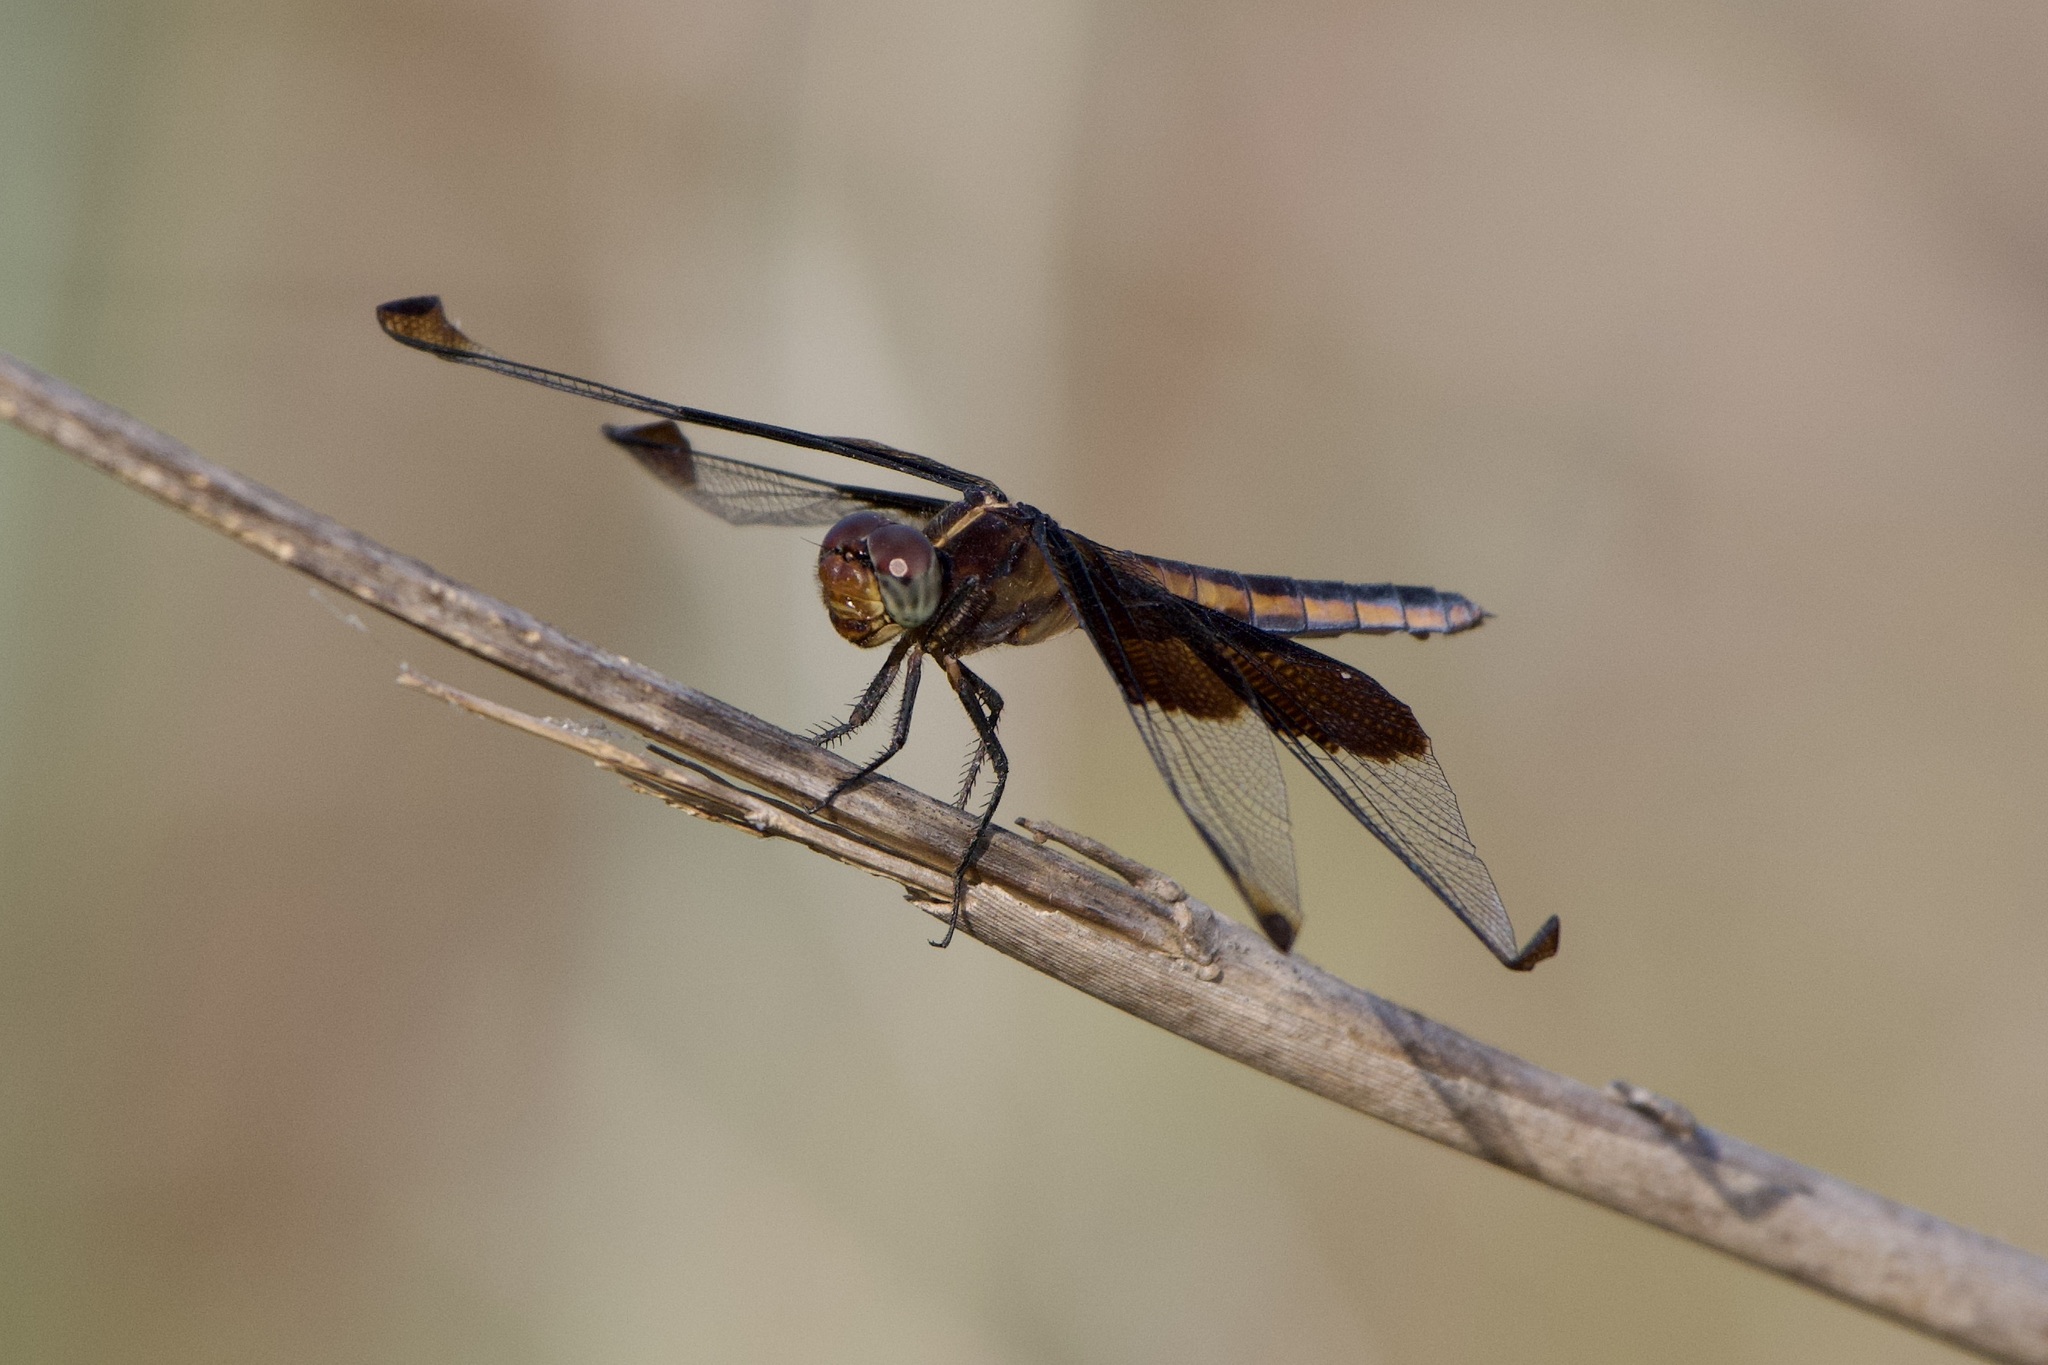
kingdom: Animalia
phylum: Arthropoda
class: Insecta
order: Odonata
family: Libellulidae
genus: Libellula
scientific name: Libellula luctuosa
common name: Widow skimmer
